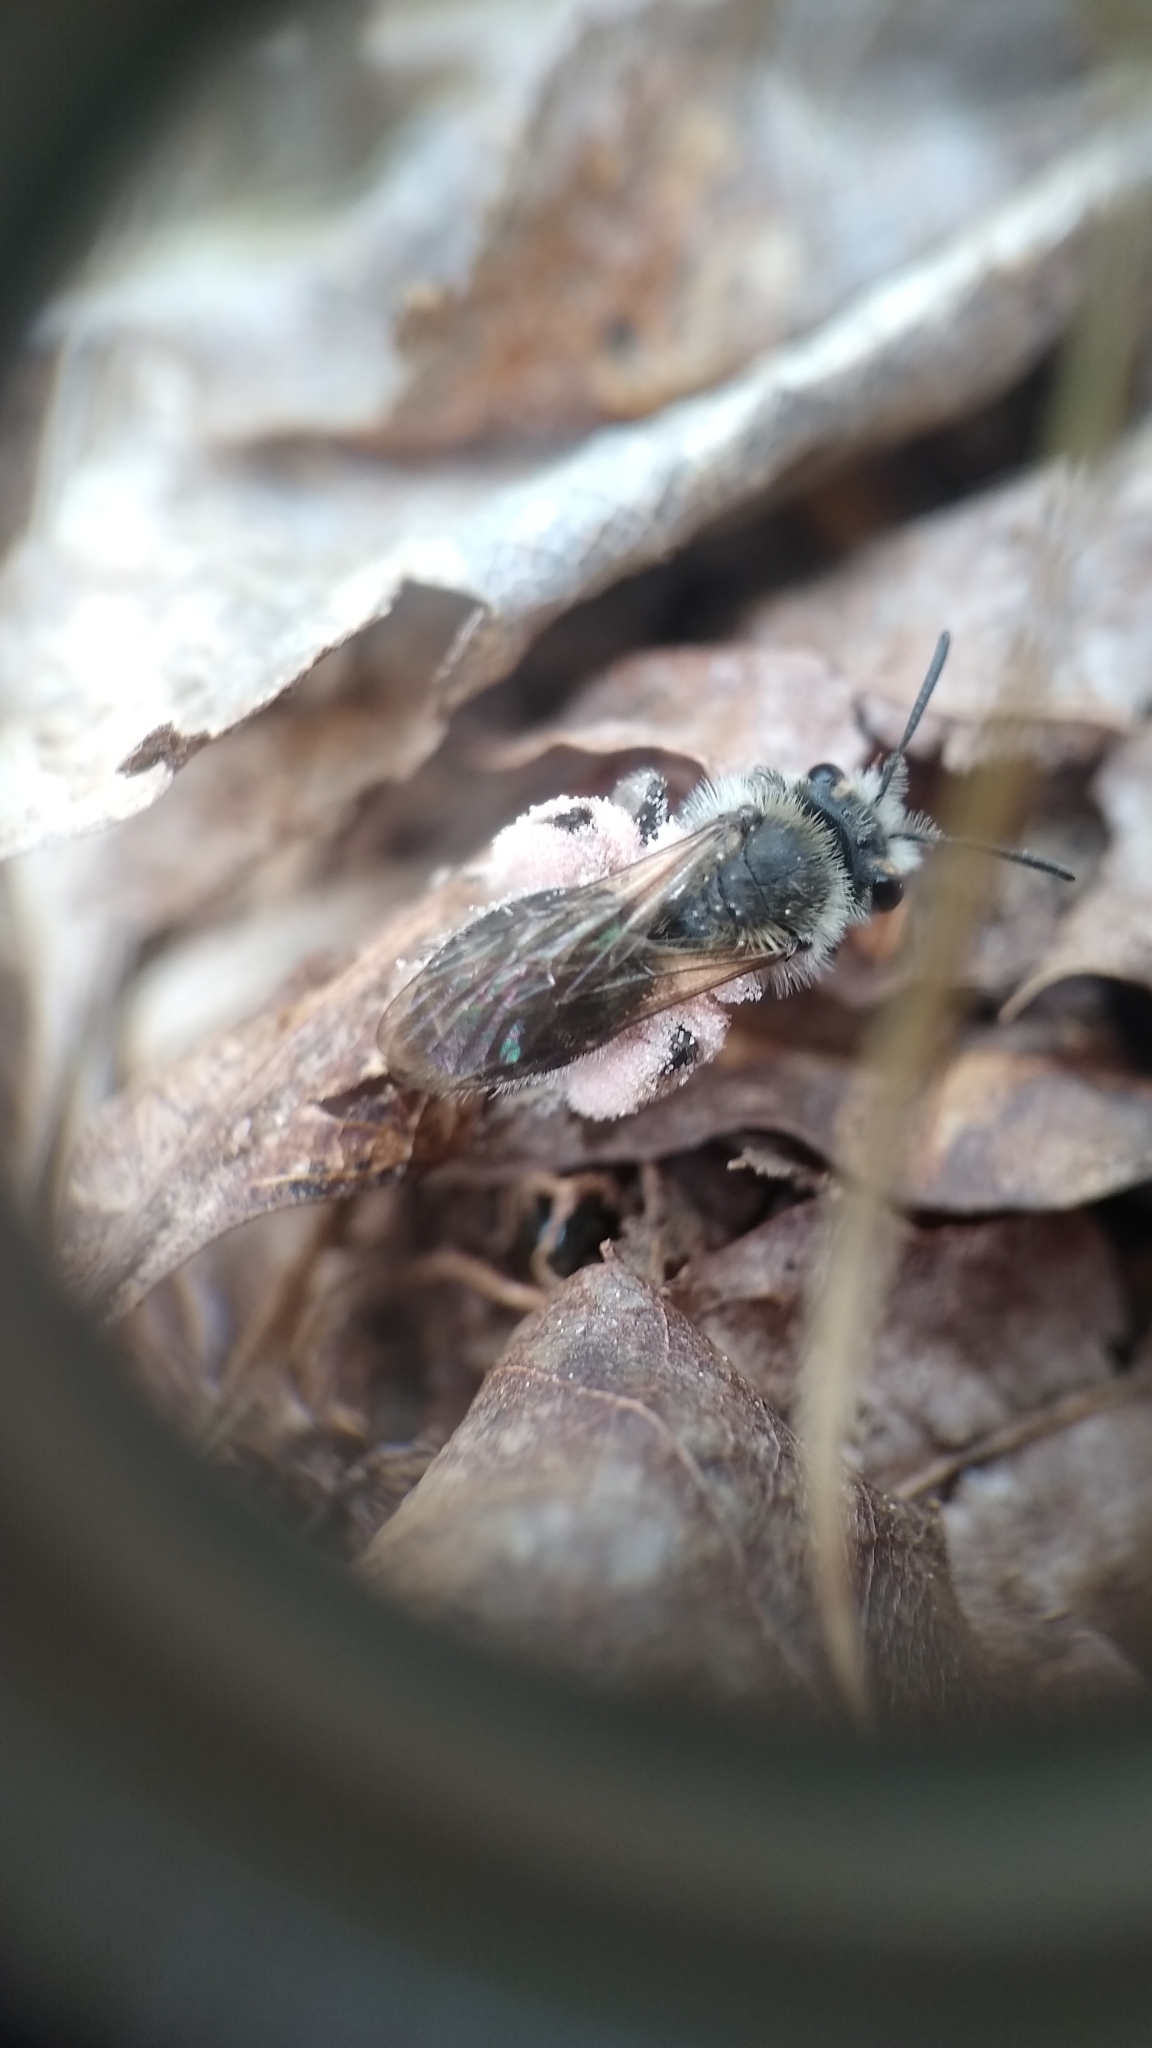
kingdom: Animalia
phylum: Arthropoda
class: Insecta
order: Hymenoptera
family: Andrenidae
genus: Andrena
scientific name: Andrena erigeniae
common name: Spring beauty miner
